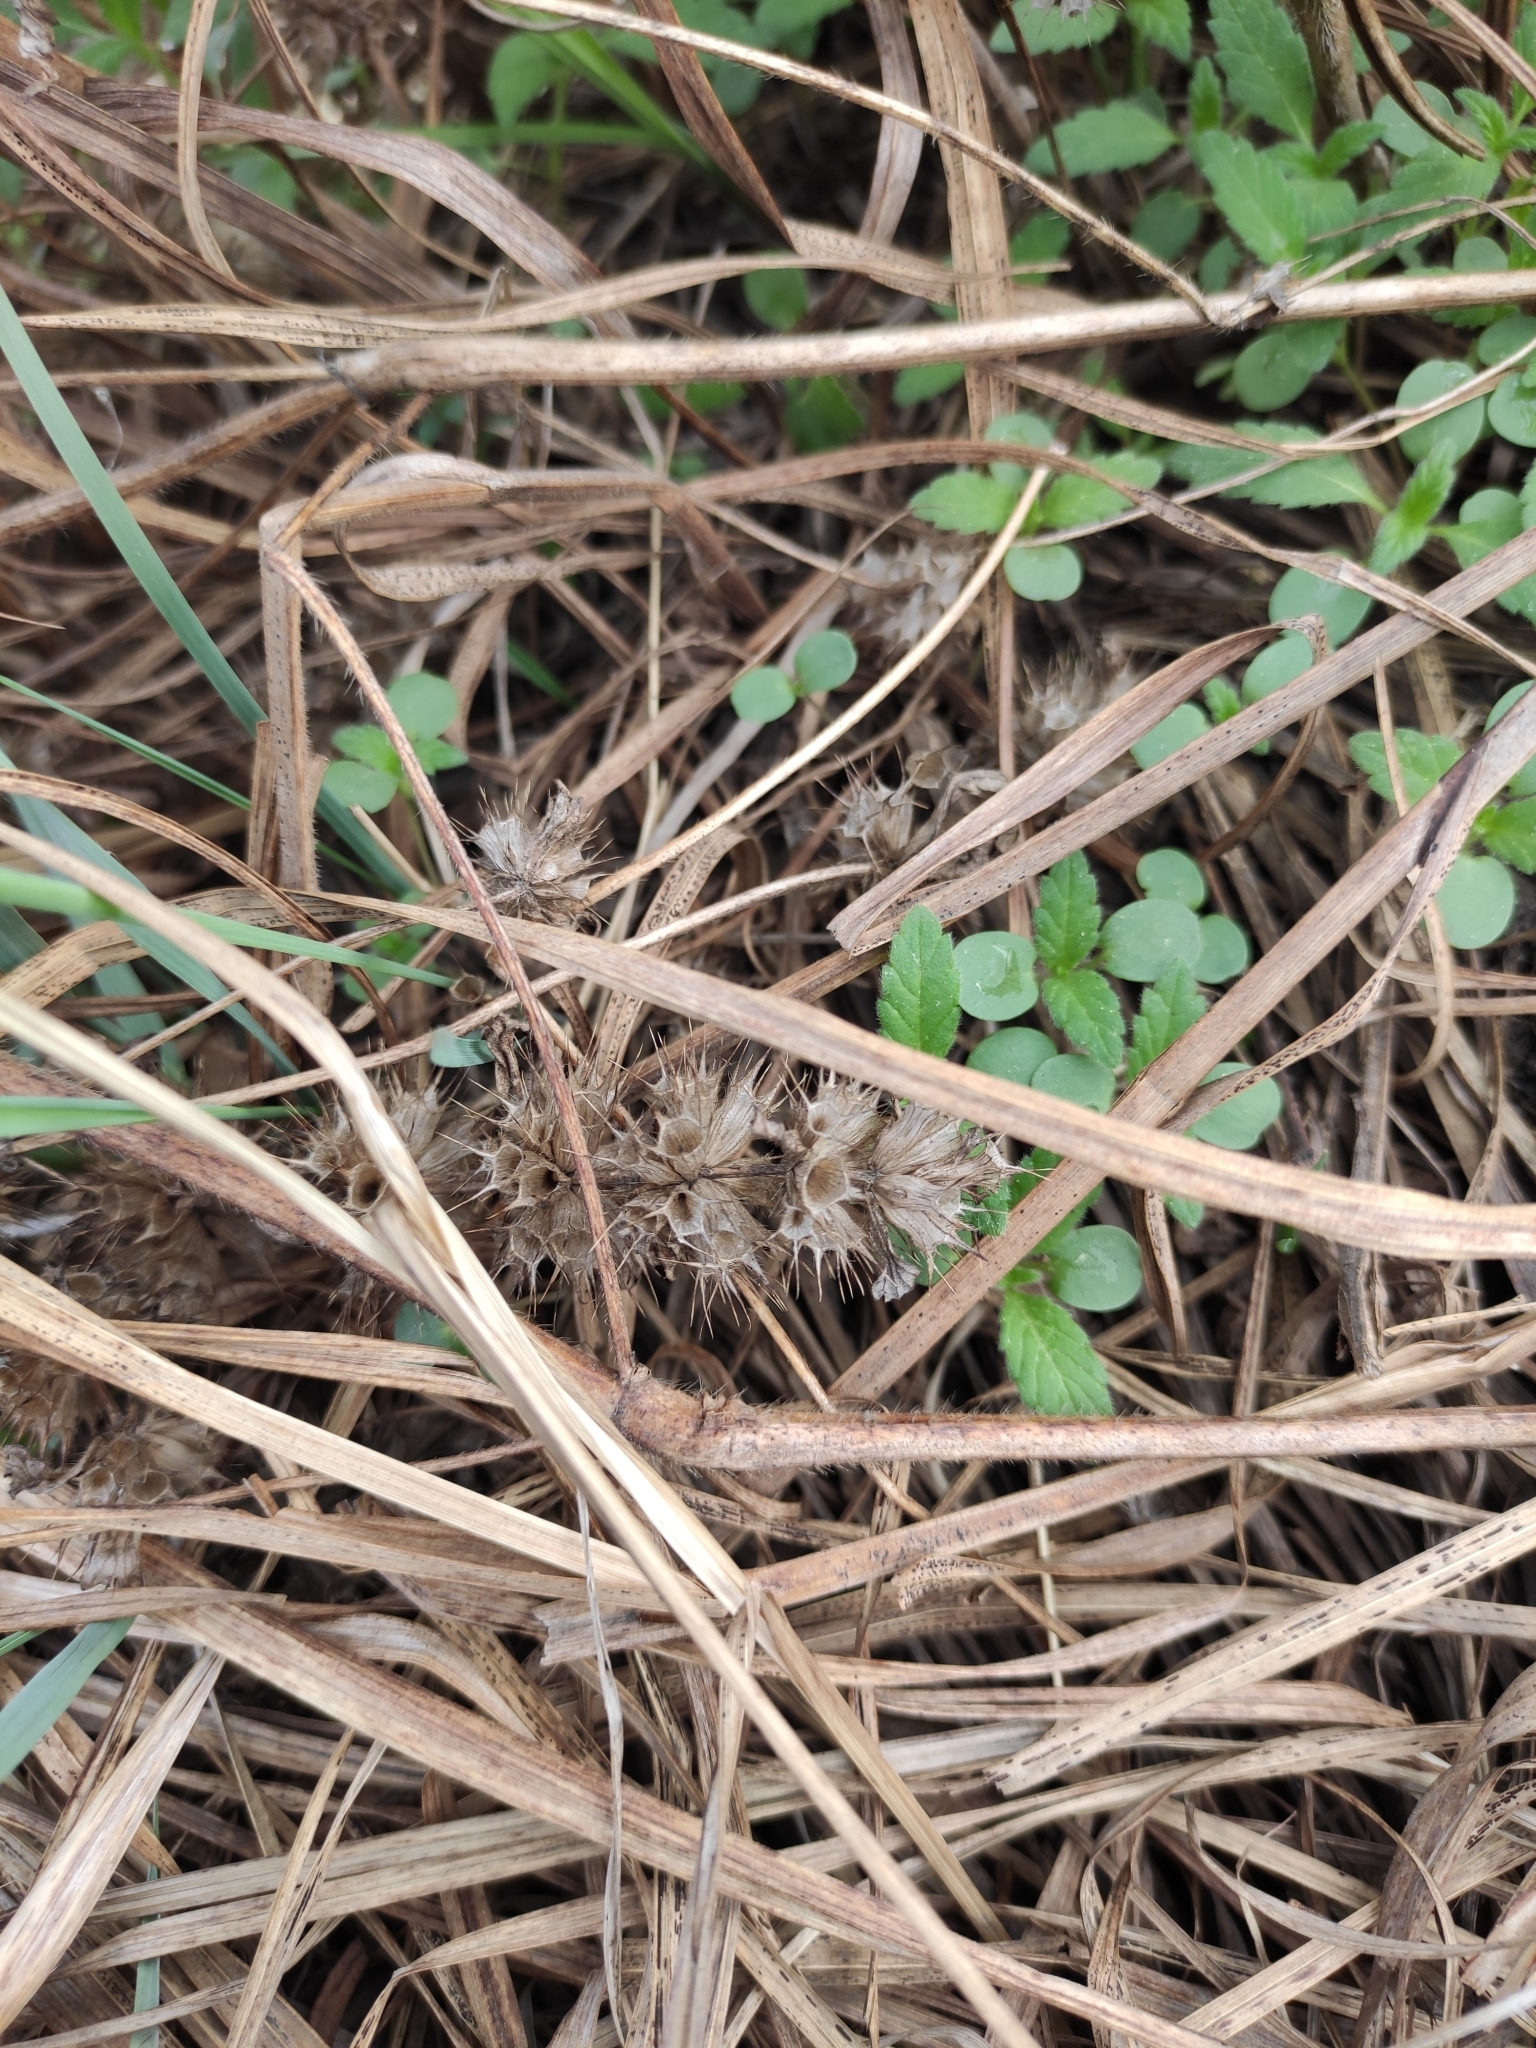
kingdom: Plantae
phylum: Tracheophyta
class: Magnoliopsida
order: Lamiales
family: Lamiaceae
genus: Galeopsis
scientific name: Galeopsis bifida
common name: Bifid hemp-nettle
